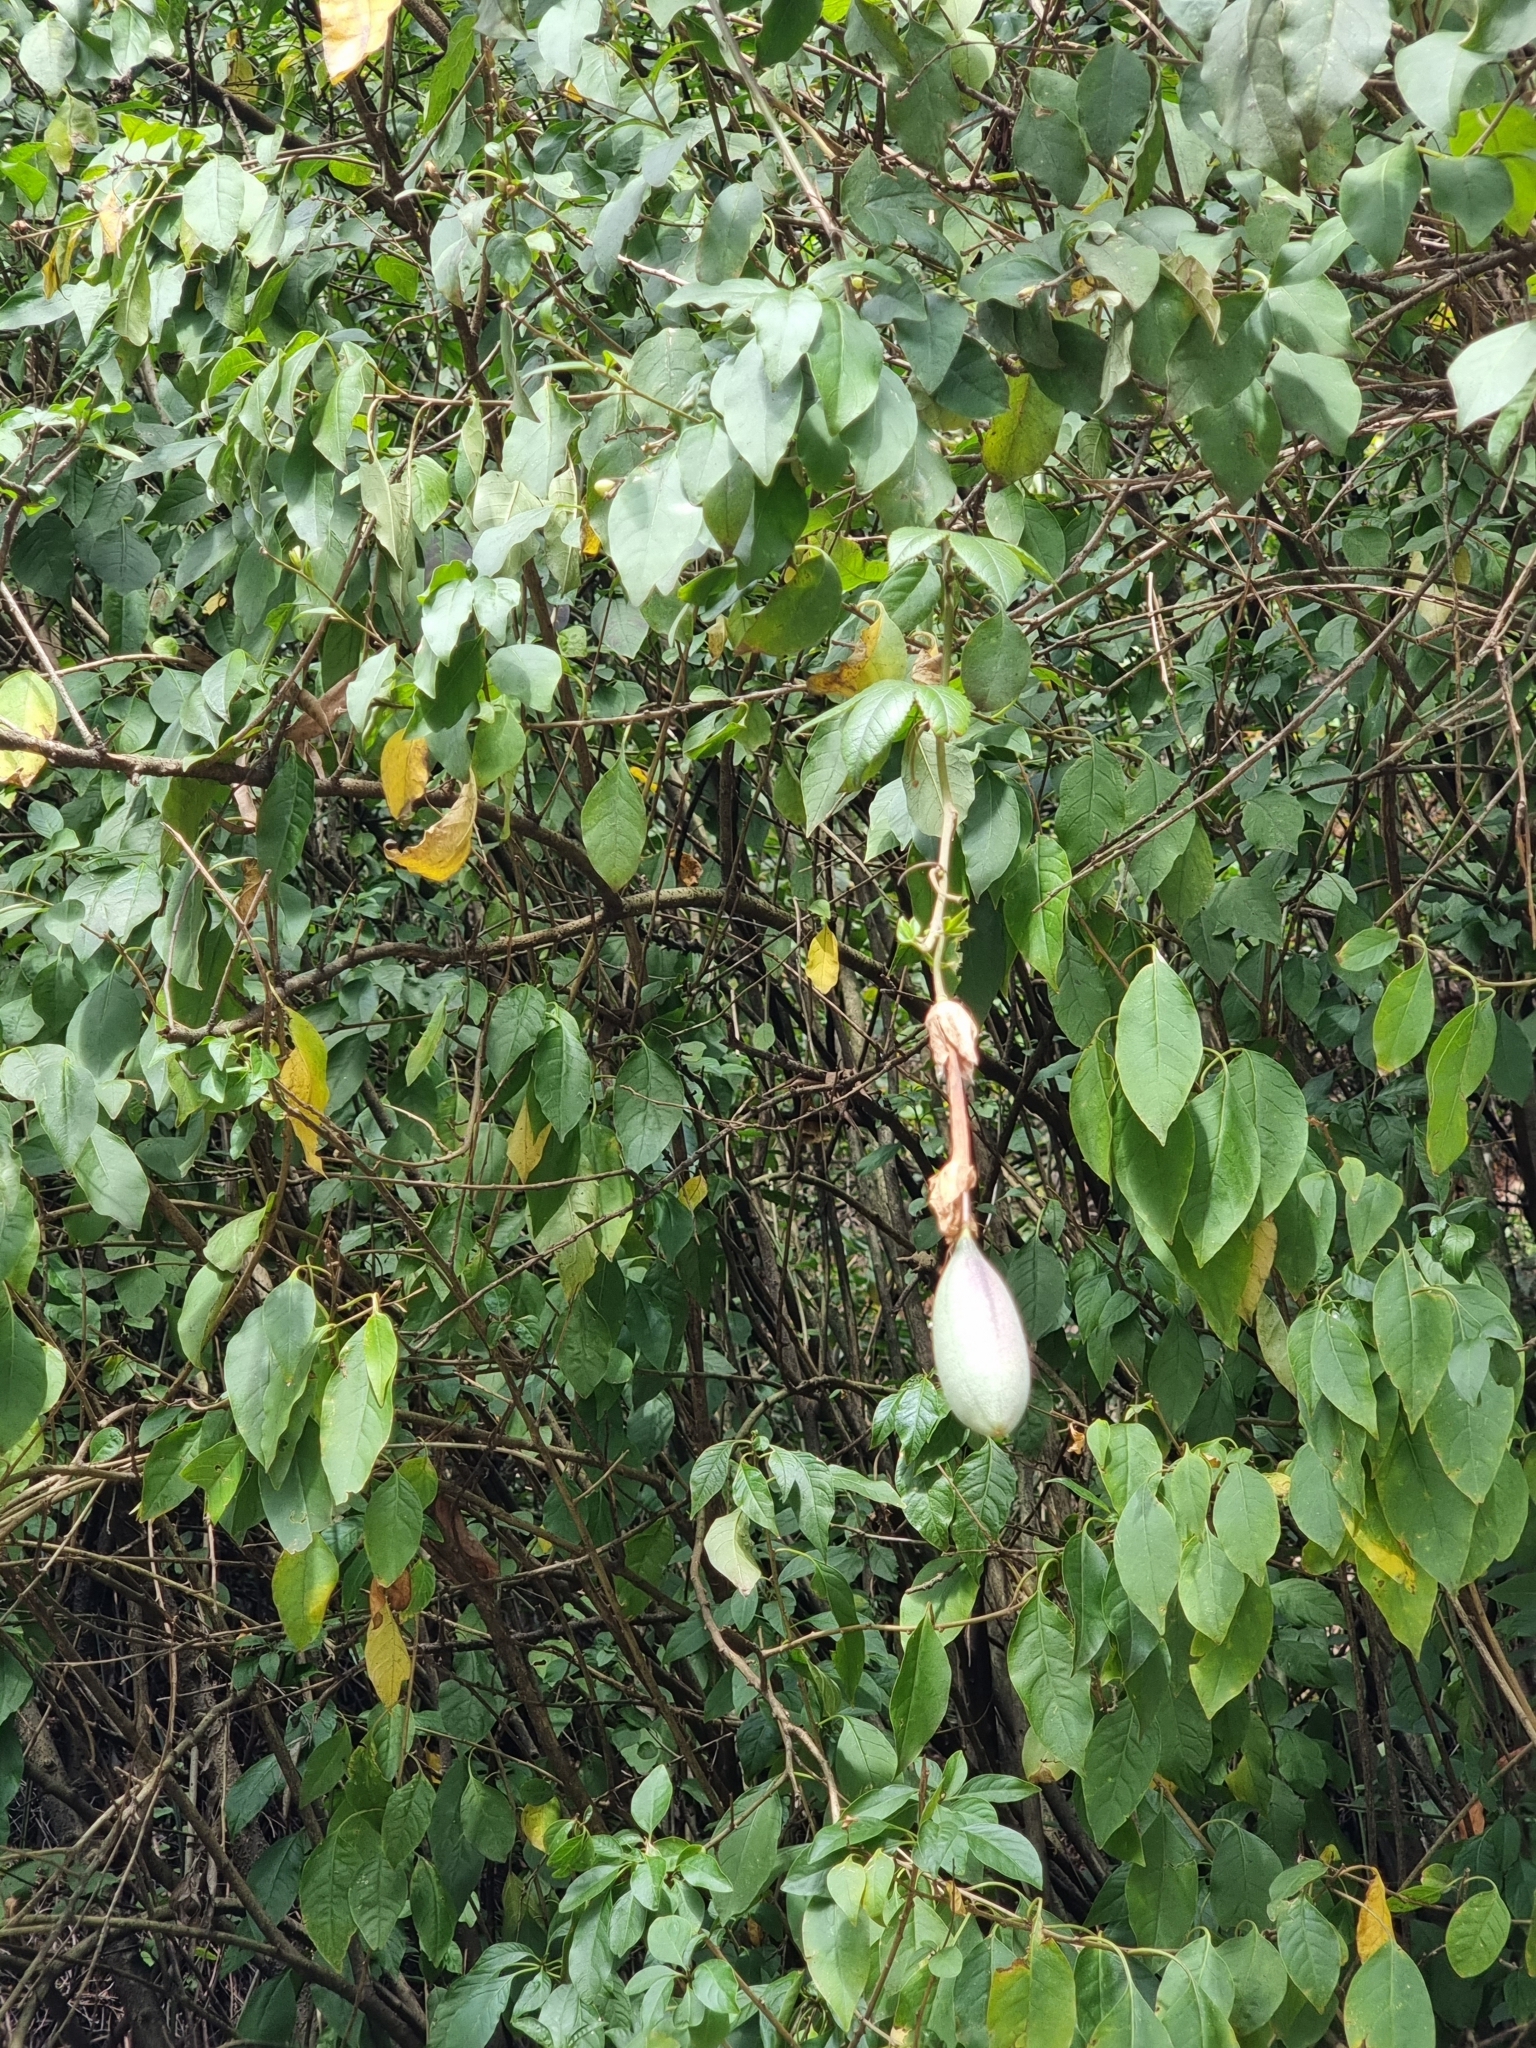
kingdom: Plantae
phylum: Tracheophyta
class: Magnoliopsida
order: Malpighiales
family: Passifloraceae
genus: Passiflora
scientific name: Passiflora tarminiana
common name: Banana poka
